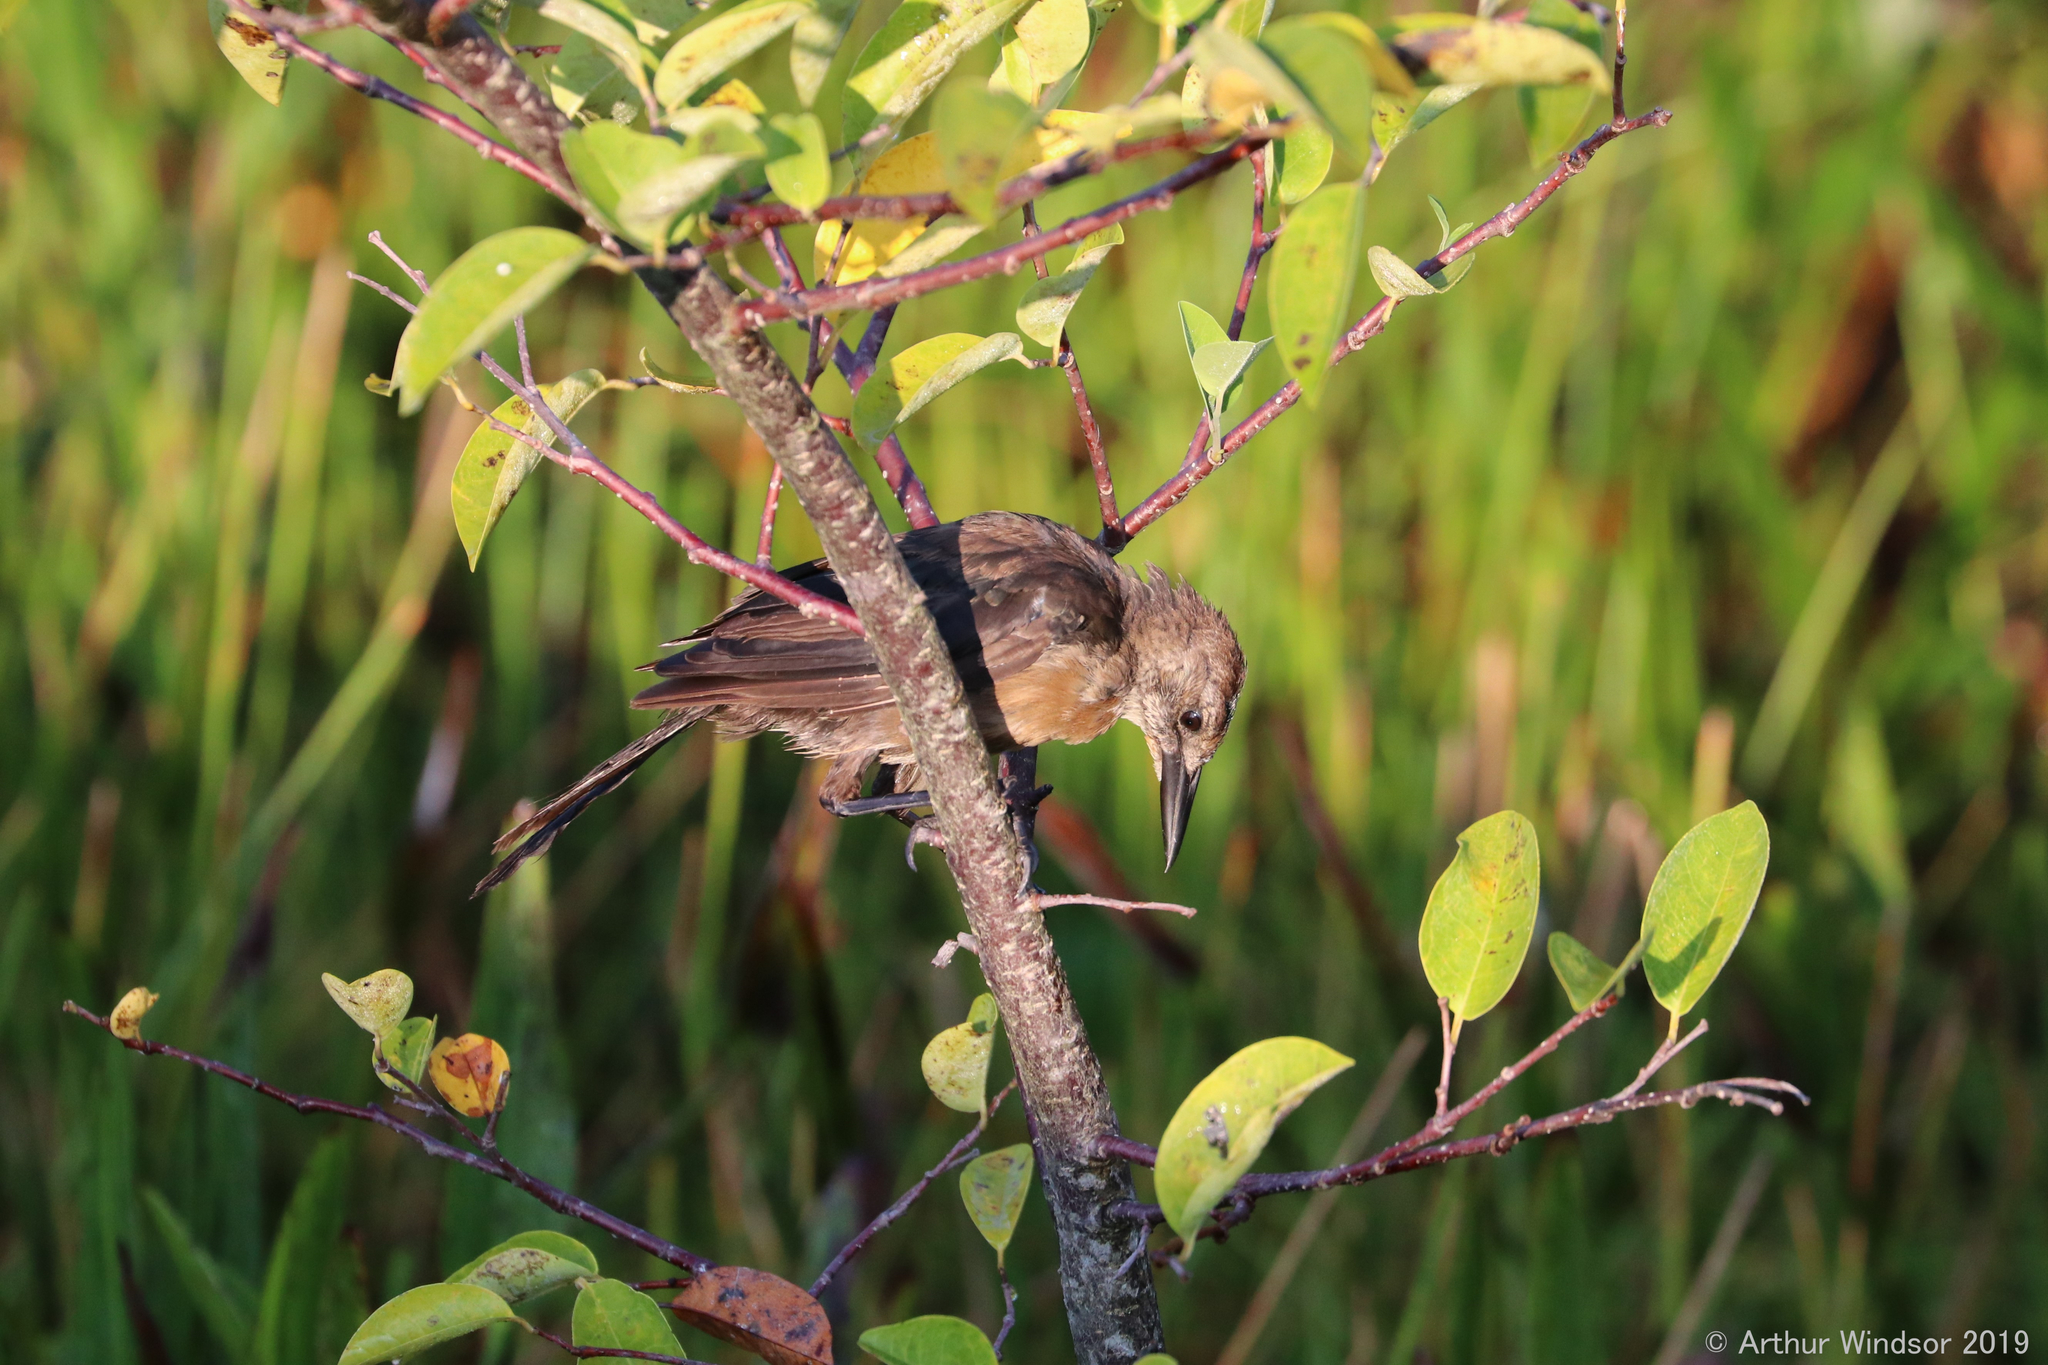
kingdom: Animalia
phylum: Chordata
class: Aves
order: Passeriformes
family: Icteridae
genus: Quiscalus
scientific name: Quiscalus major
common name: Boat-tailed grackle
